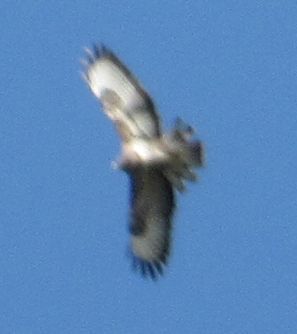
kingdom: Animalia
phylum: Chordata
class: Aves
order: Accipitriformes
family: Accipitridae
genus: Buteo
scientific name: Buteo buteo
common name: Common buzzard
